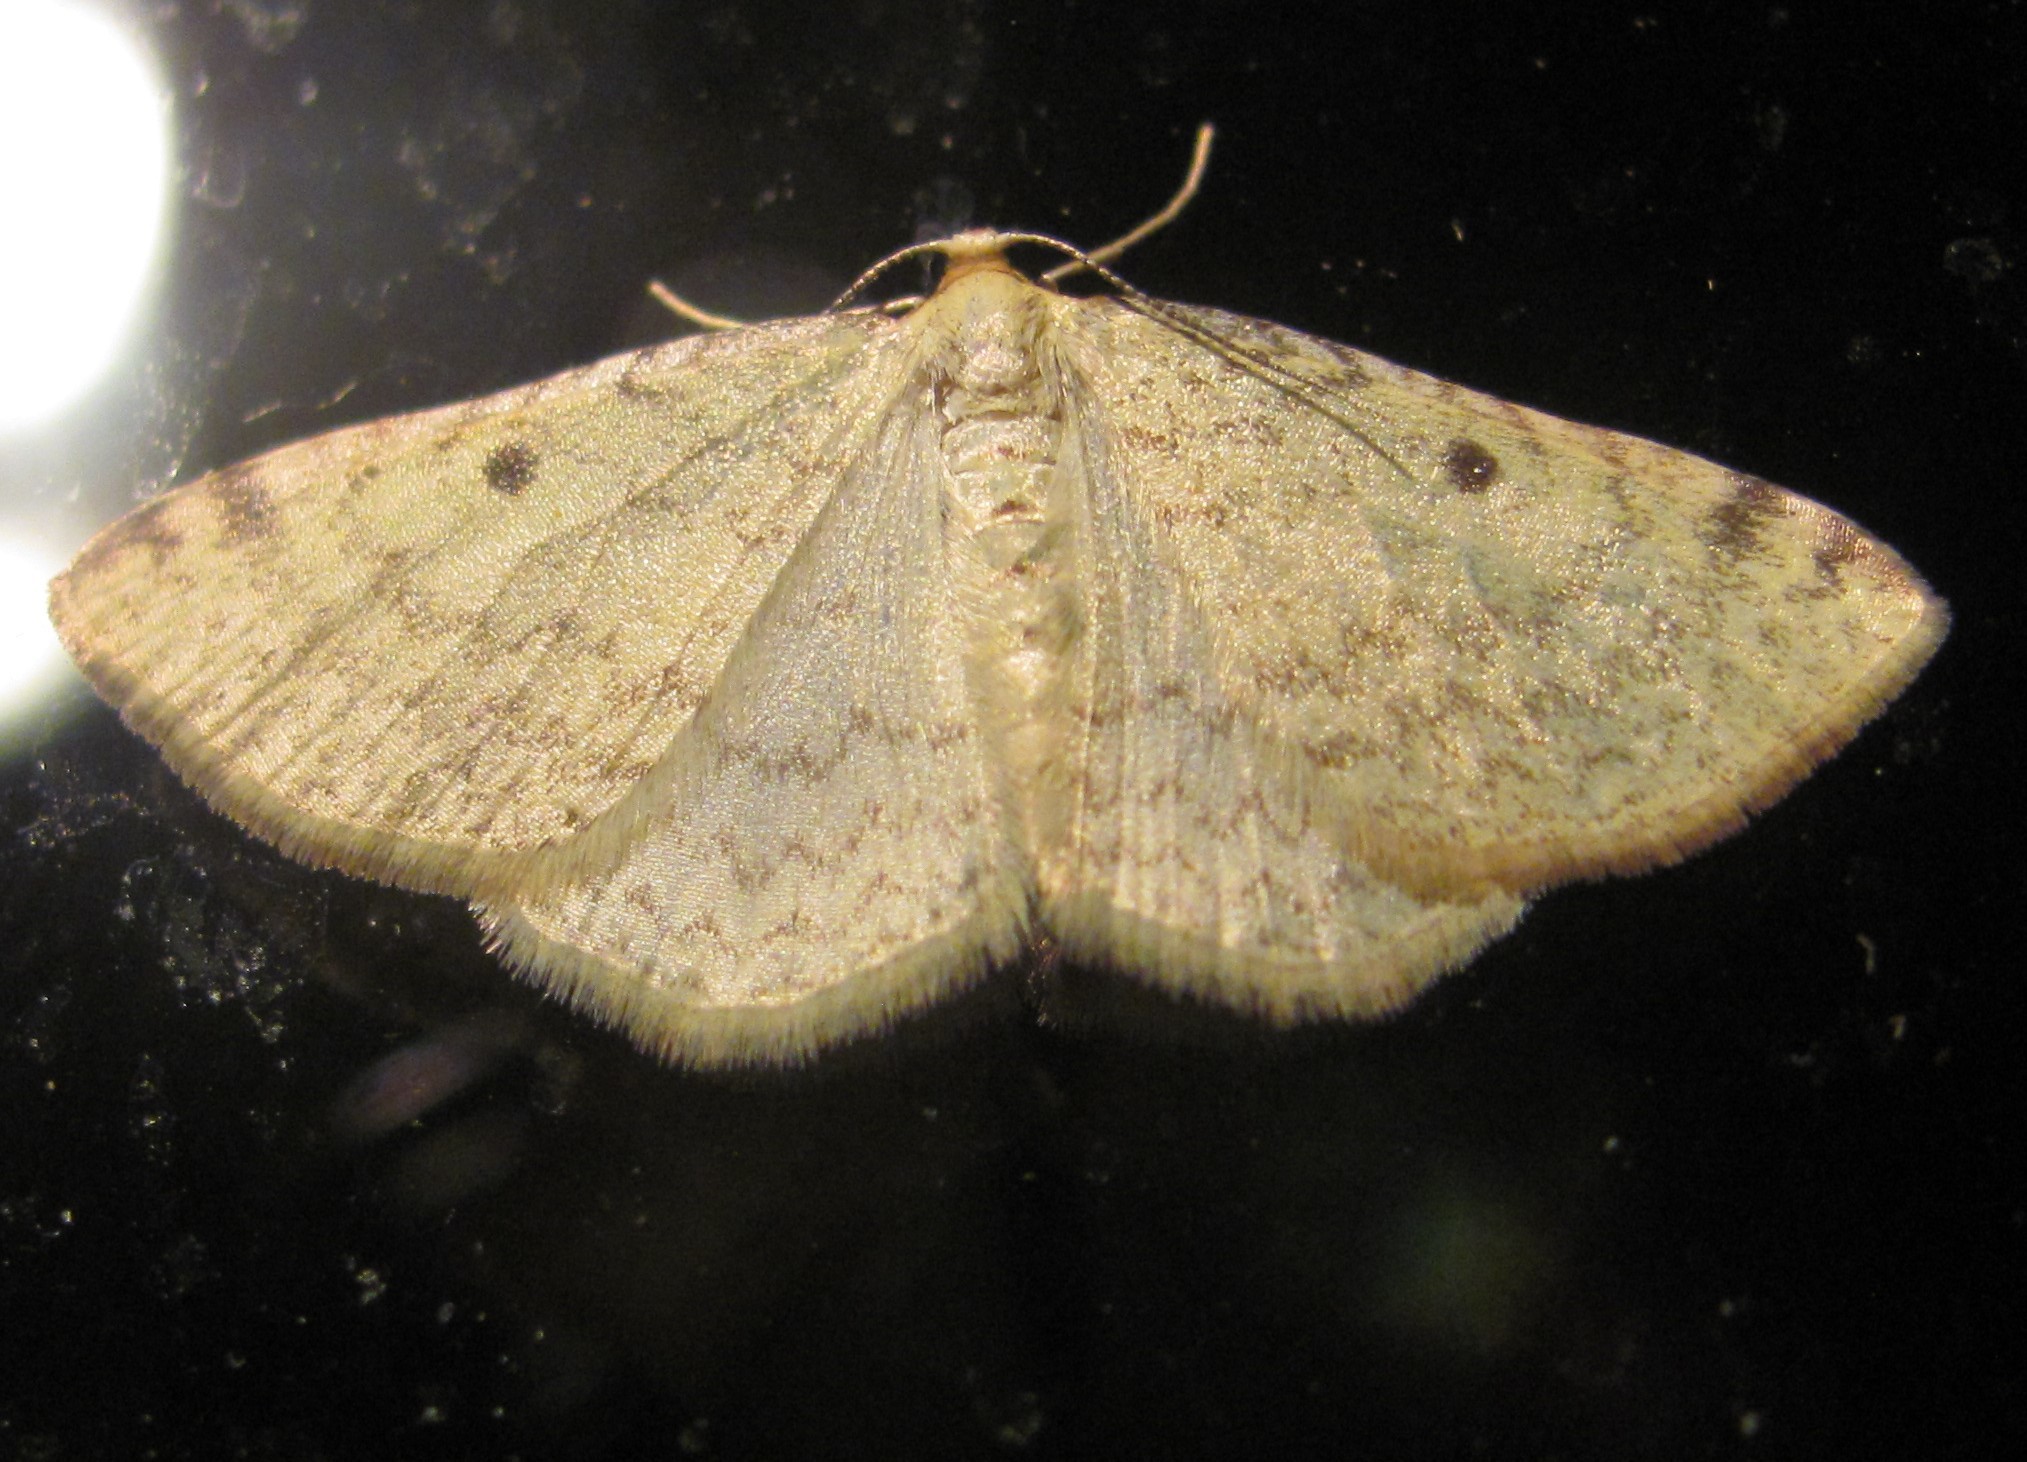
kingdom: Animalia
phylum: Arthropoda
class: Insecta
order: Lepidoptera
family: Geometridae
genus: Epiphryne
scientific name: Epiphryne undosata
